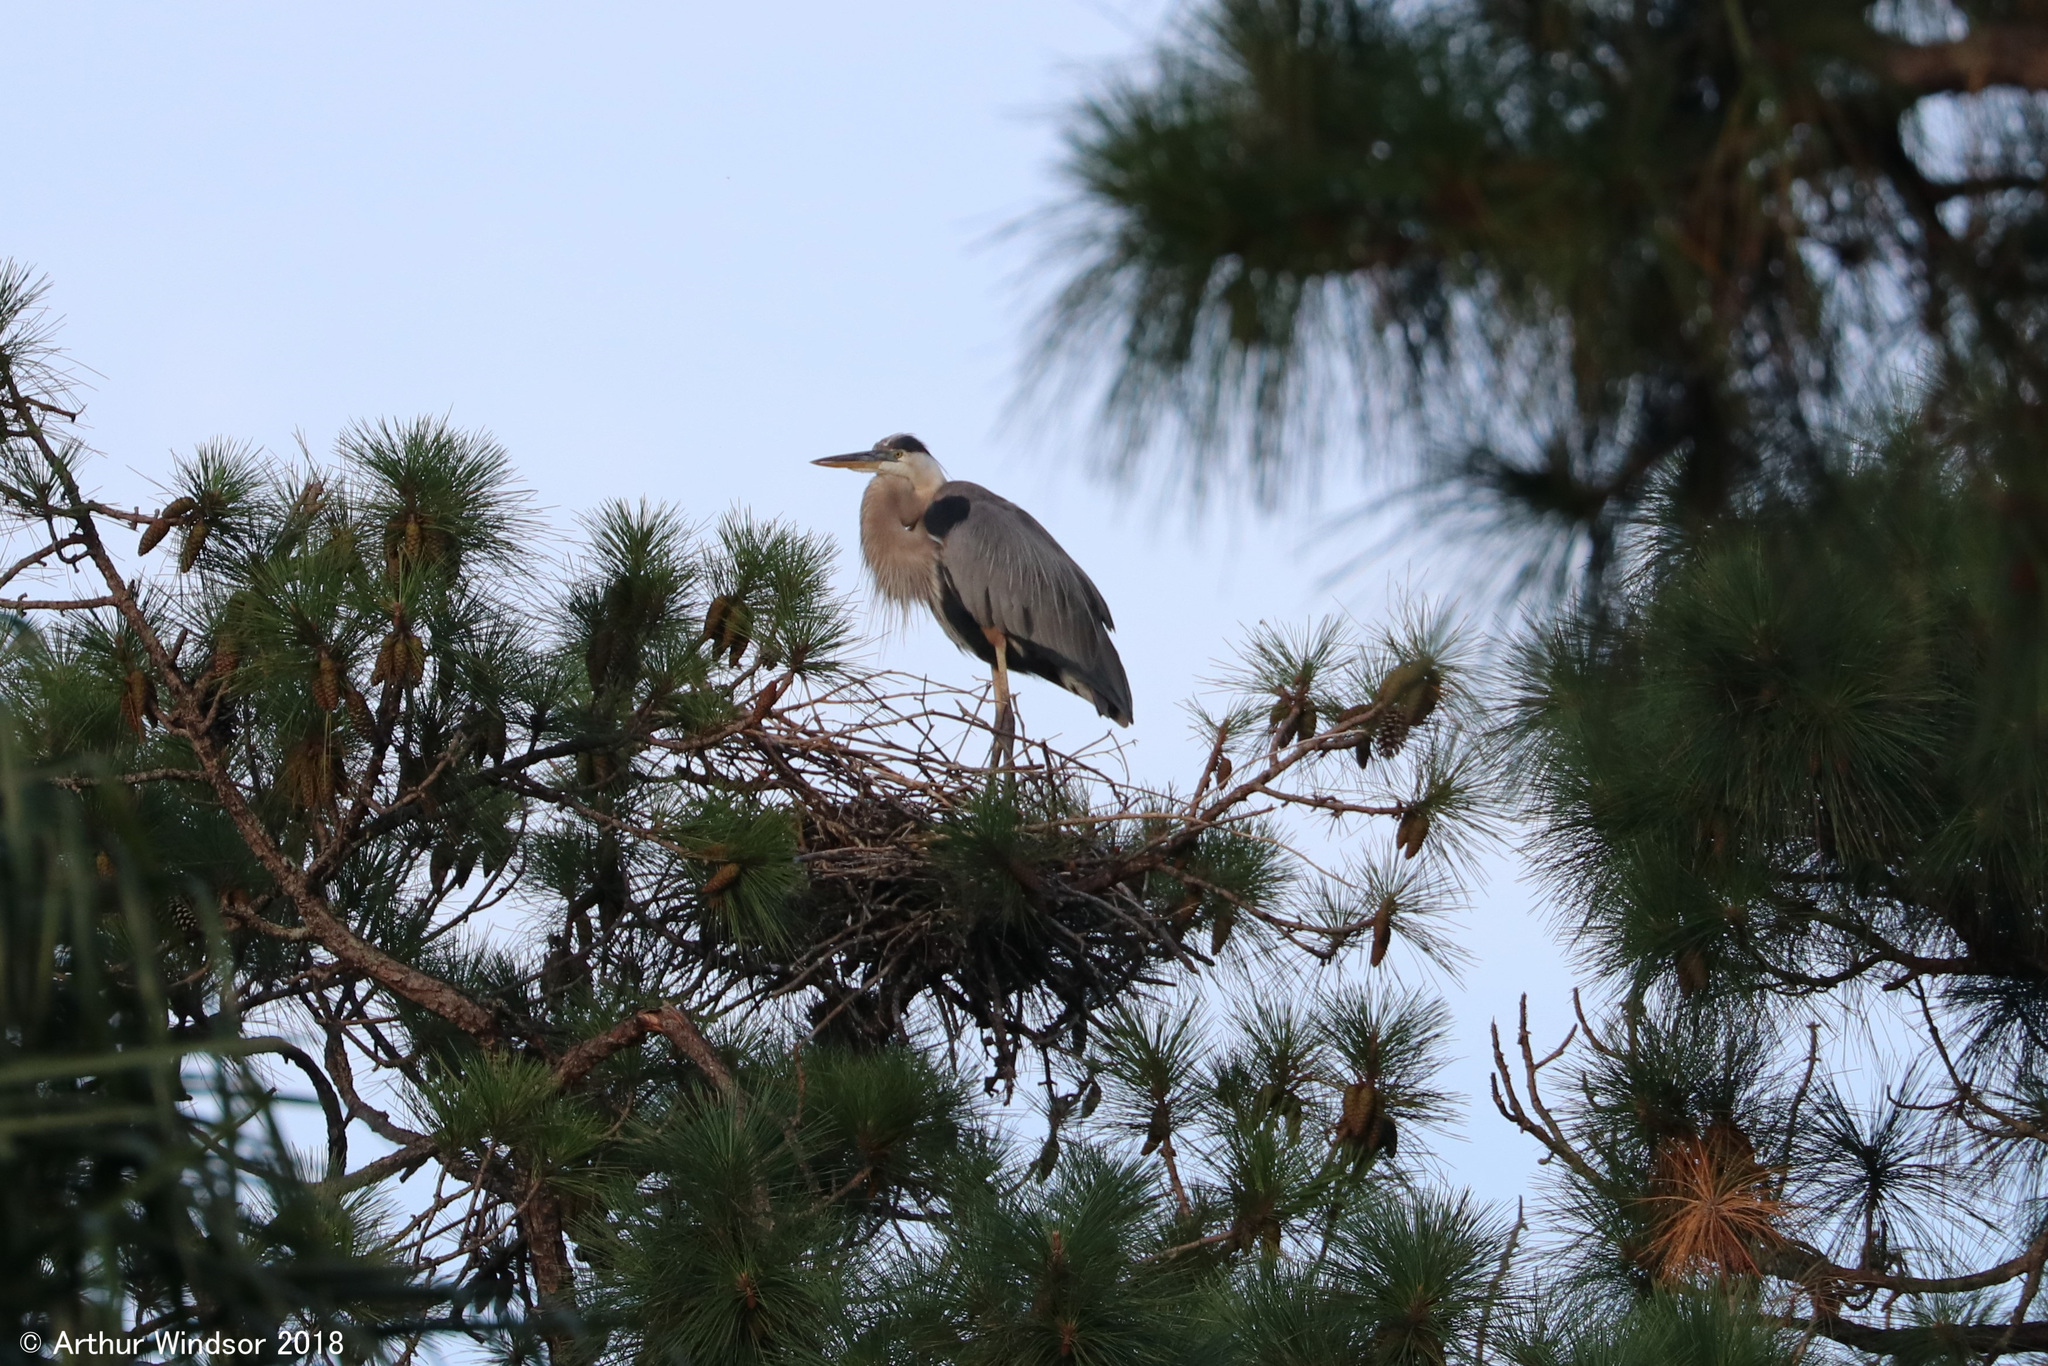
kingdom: Animalia
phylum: Chordata
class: Aves
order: Pelecaniformes
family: Ardeidae
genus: Ardea
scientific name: Ardea herodias
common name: Great blue heron
